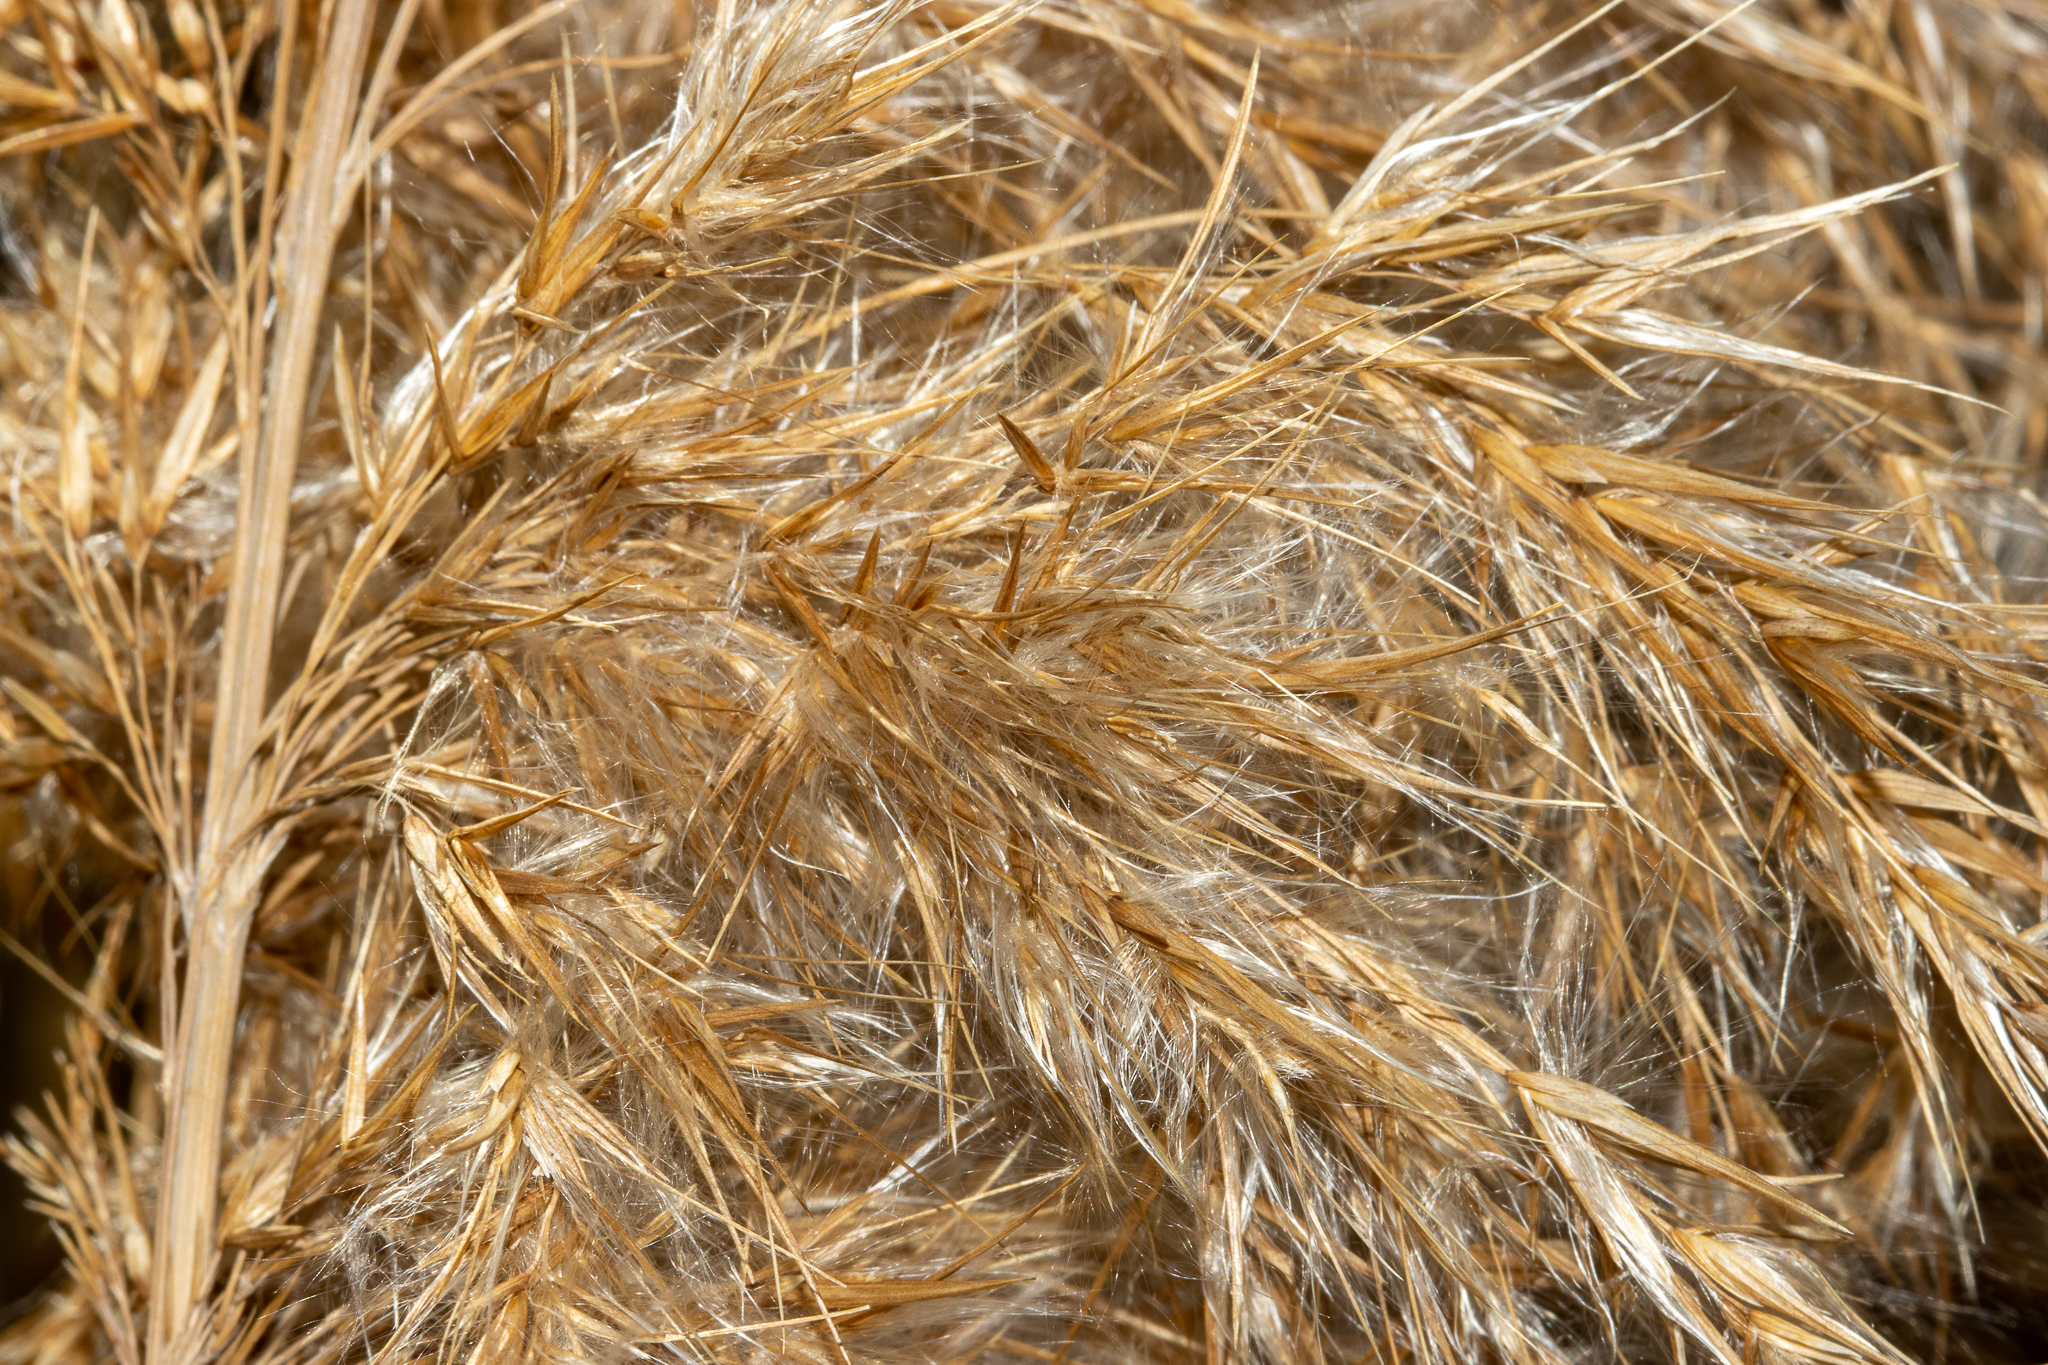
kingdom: Plantae
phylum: Tracheophyta
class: Liliopsida
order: Poales
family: Poaceae
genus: Phragmites
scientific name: Phragmites australis
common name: Common reed
